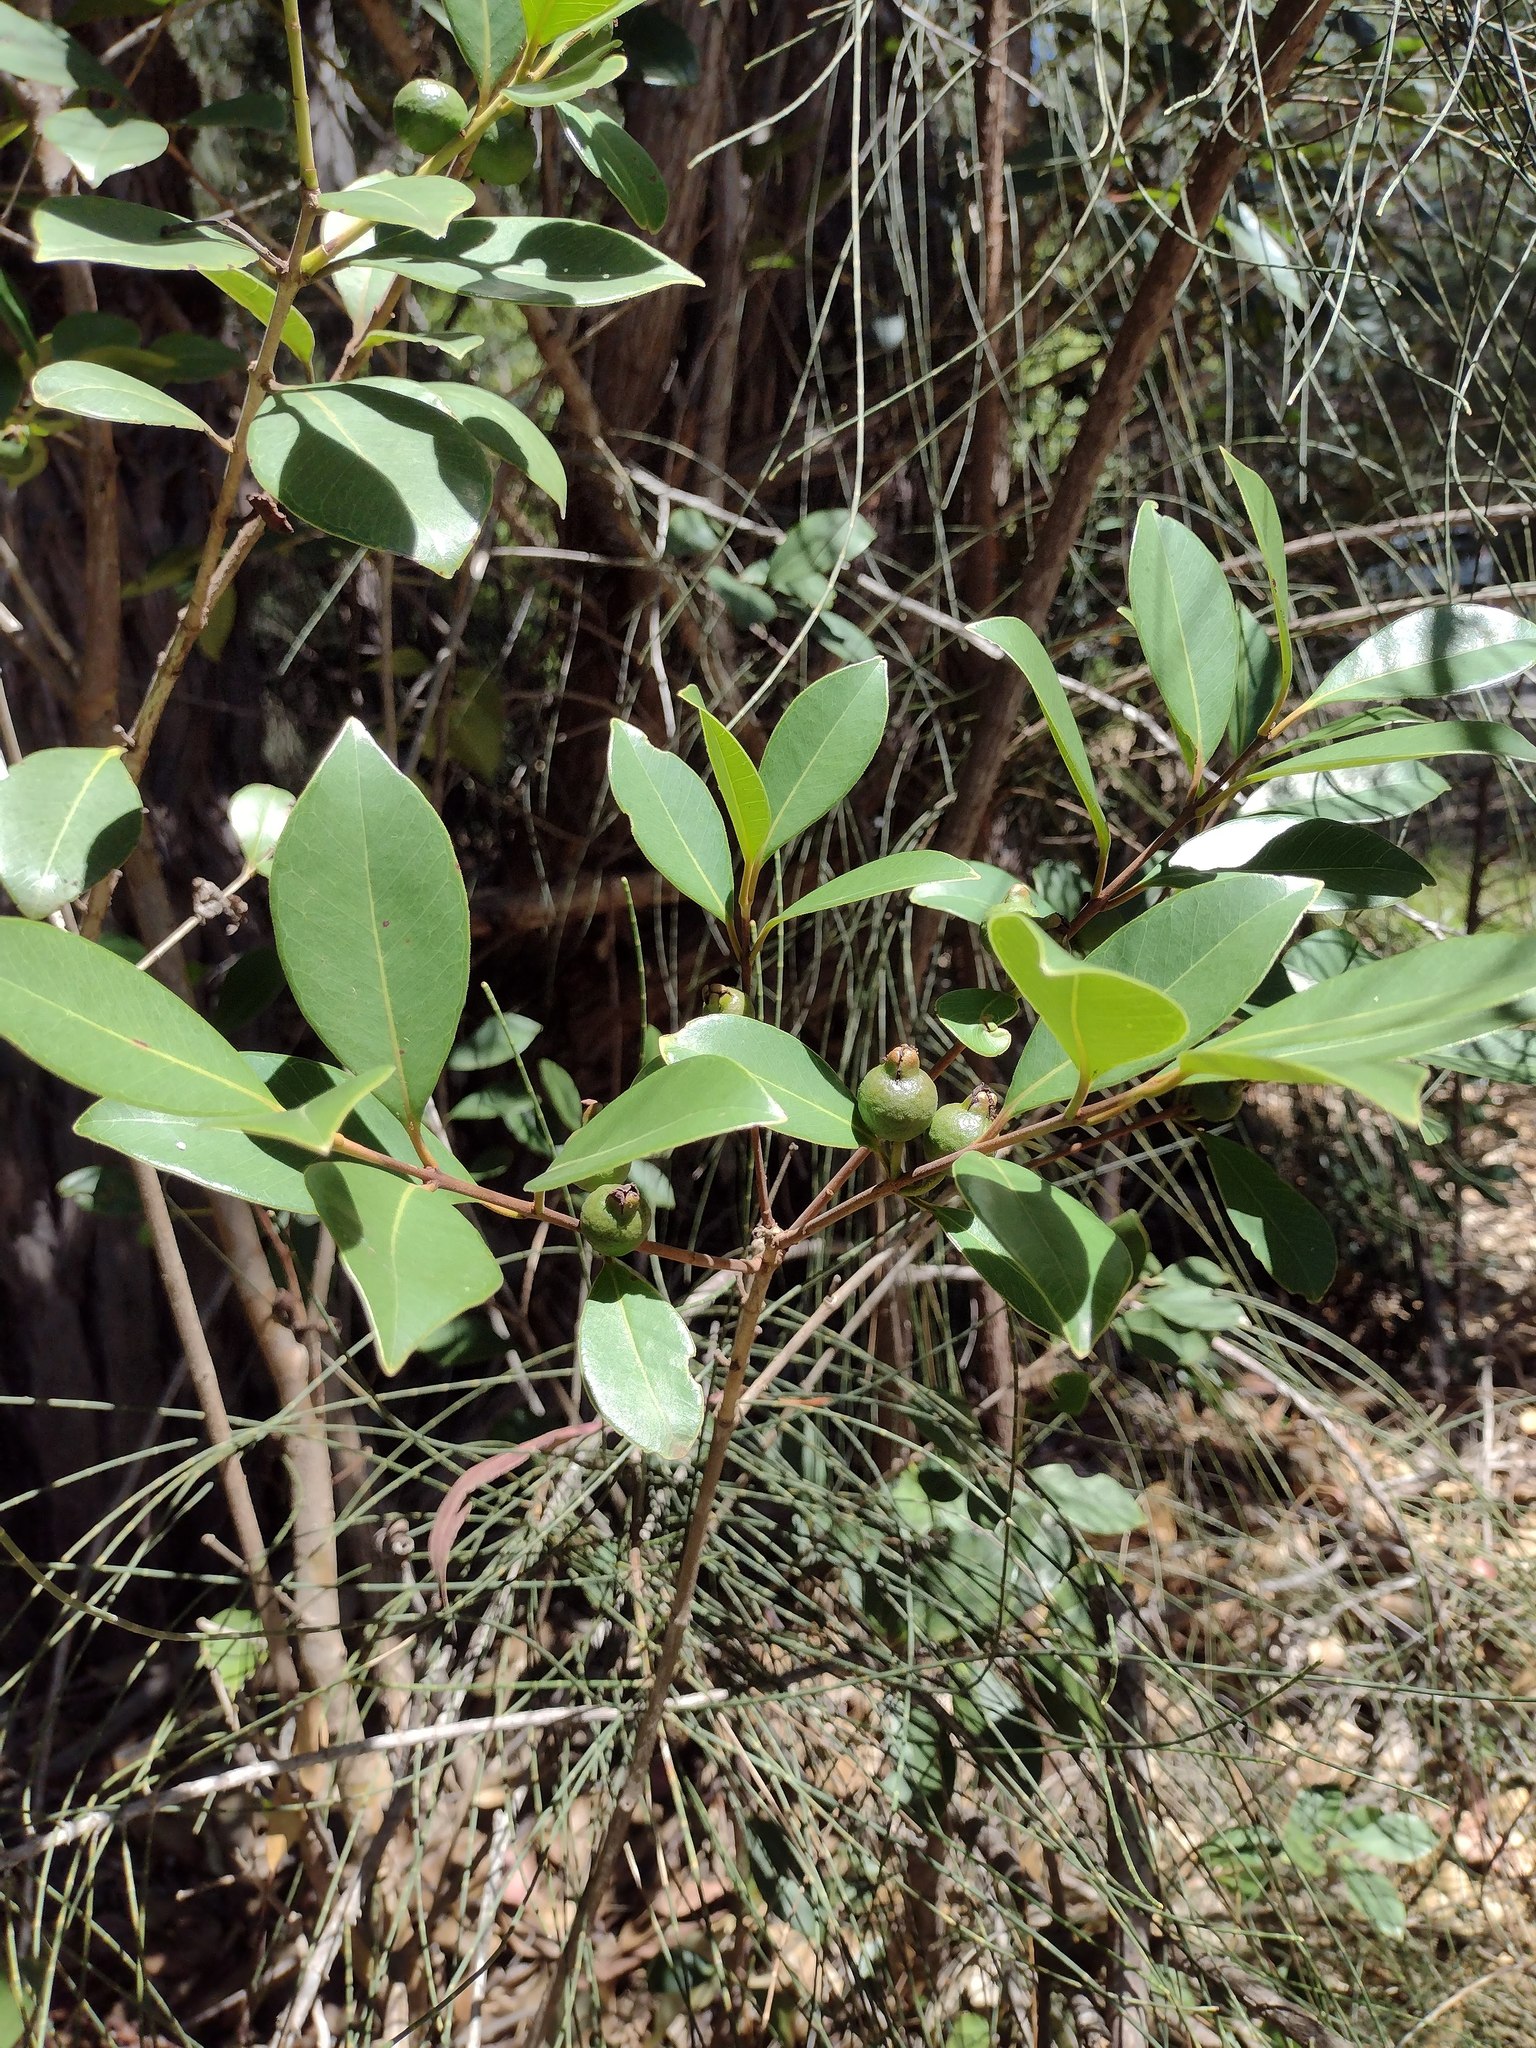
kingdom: Plantae
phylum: Tracheophyta
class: Magnoliopsida
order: Myrtales
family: Myrtaceae
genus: Psidium
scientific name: Psidium cattleianum
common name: Strawberry guava
